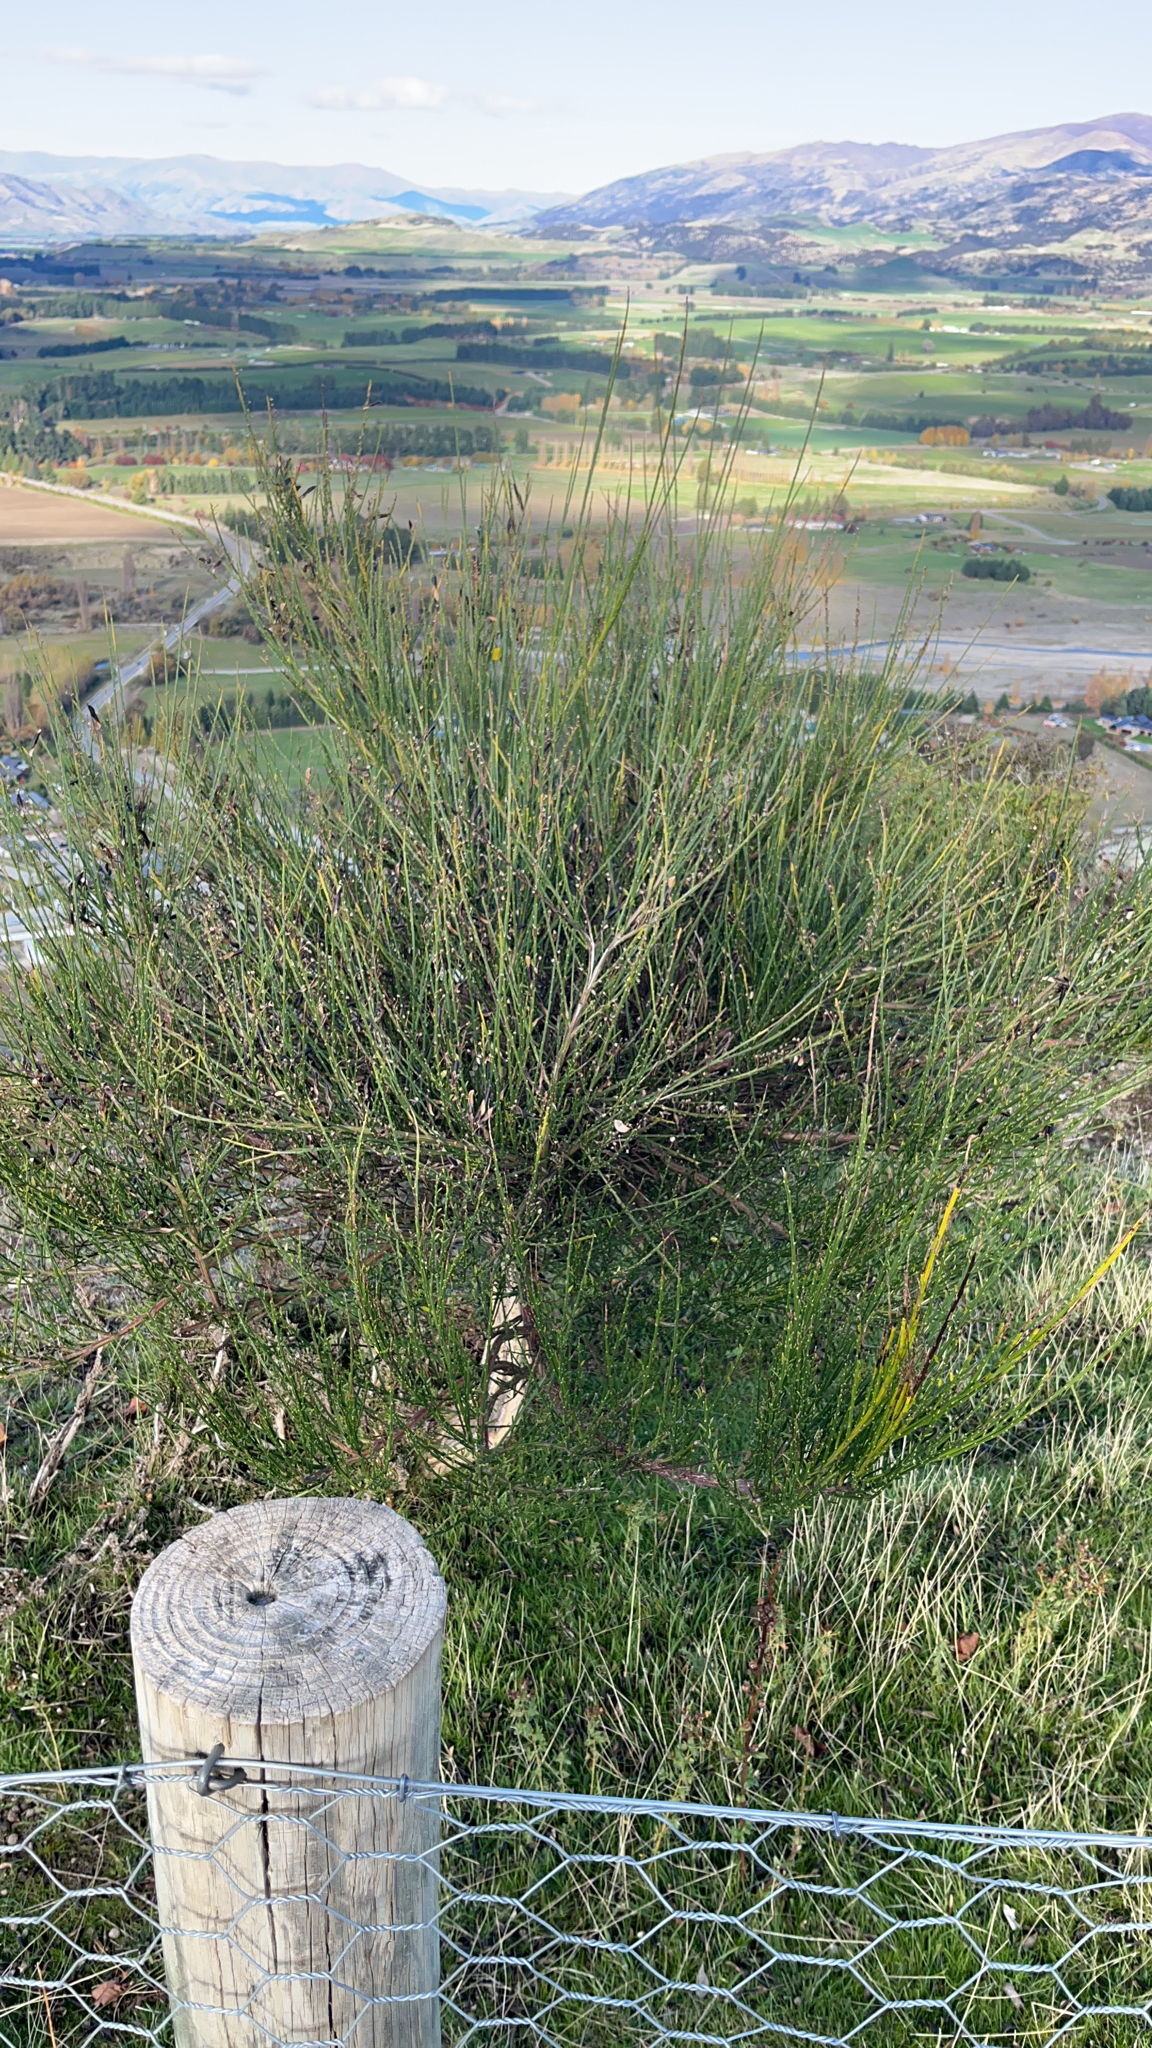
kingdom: Plantae
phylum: Tracheophyta
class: Magnoliopsida
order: Fabales
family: Fabaceae
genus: Cytisus
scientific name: Cytisus scoparius
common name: Scotch broom
